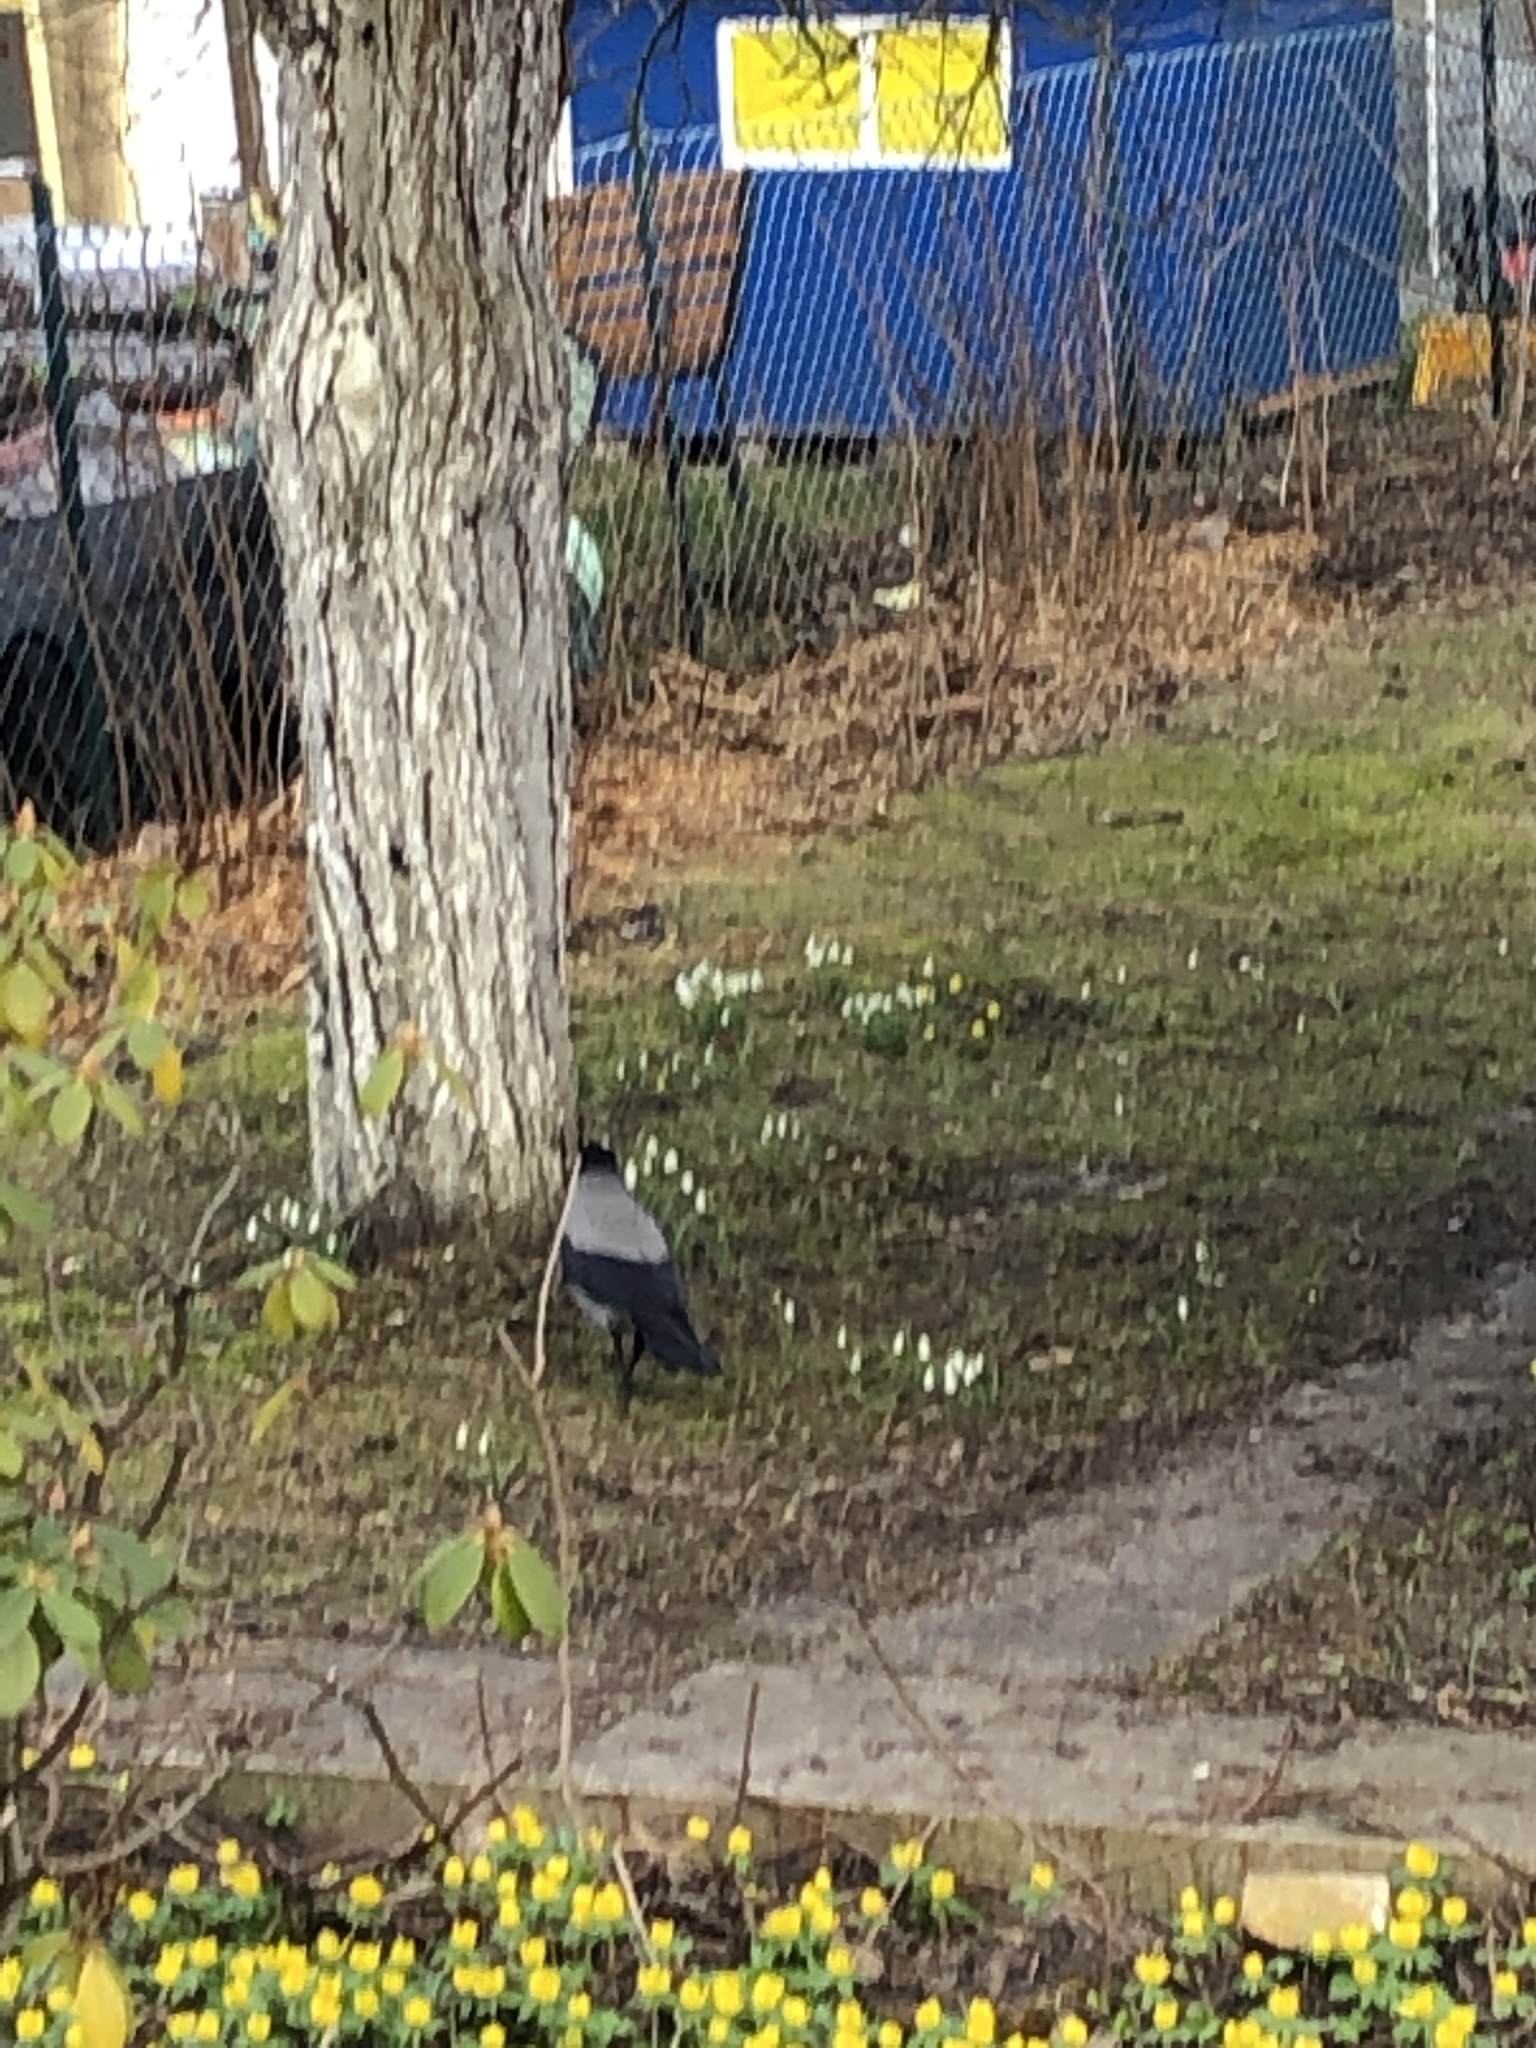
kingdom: Animalia
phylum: Chordata
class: Aves
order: Passeriformes
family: Corvidae
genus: Corvus
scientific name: Corvus cornix
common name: Hooded crow
